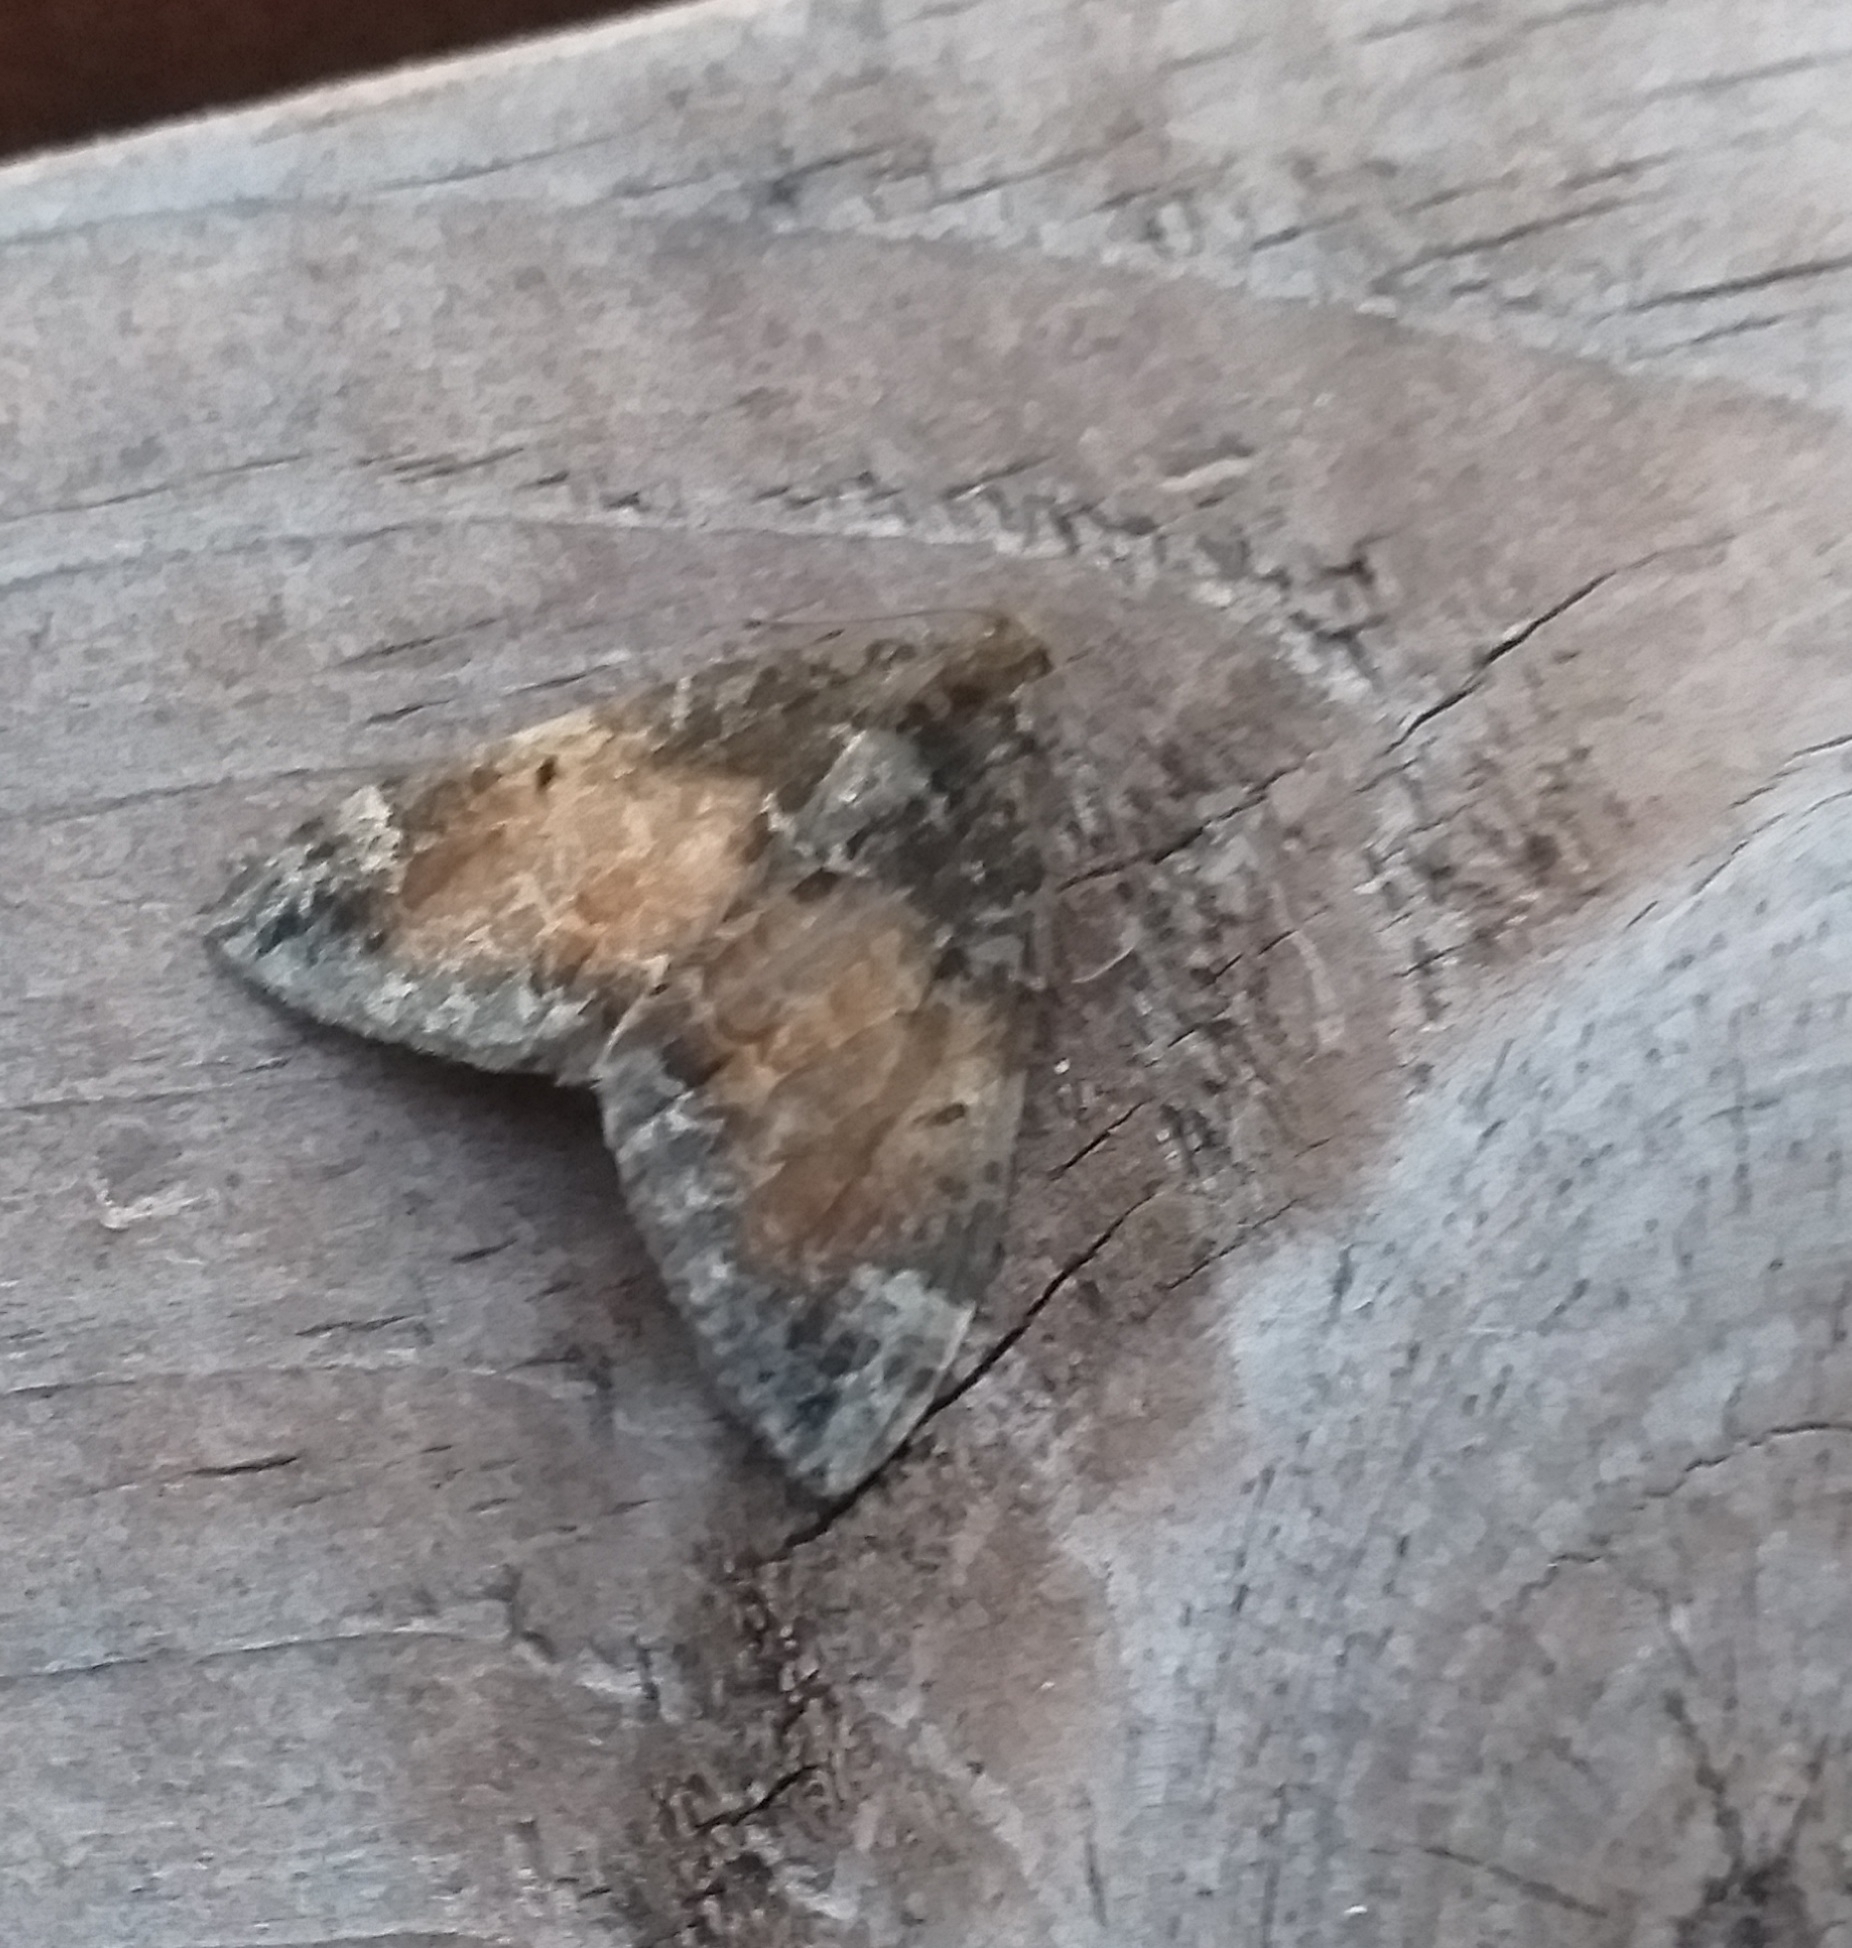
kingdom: Animalia
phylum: Arthropoda
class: Insecta
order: Lepidoptera
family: Geometridae
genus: Dysstroma
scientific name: Dysstroma truncata
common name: Common marbled carpet
